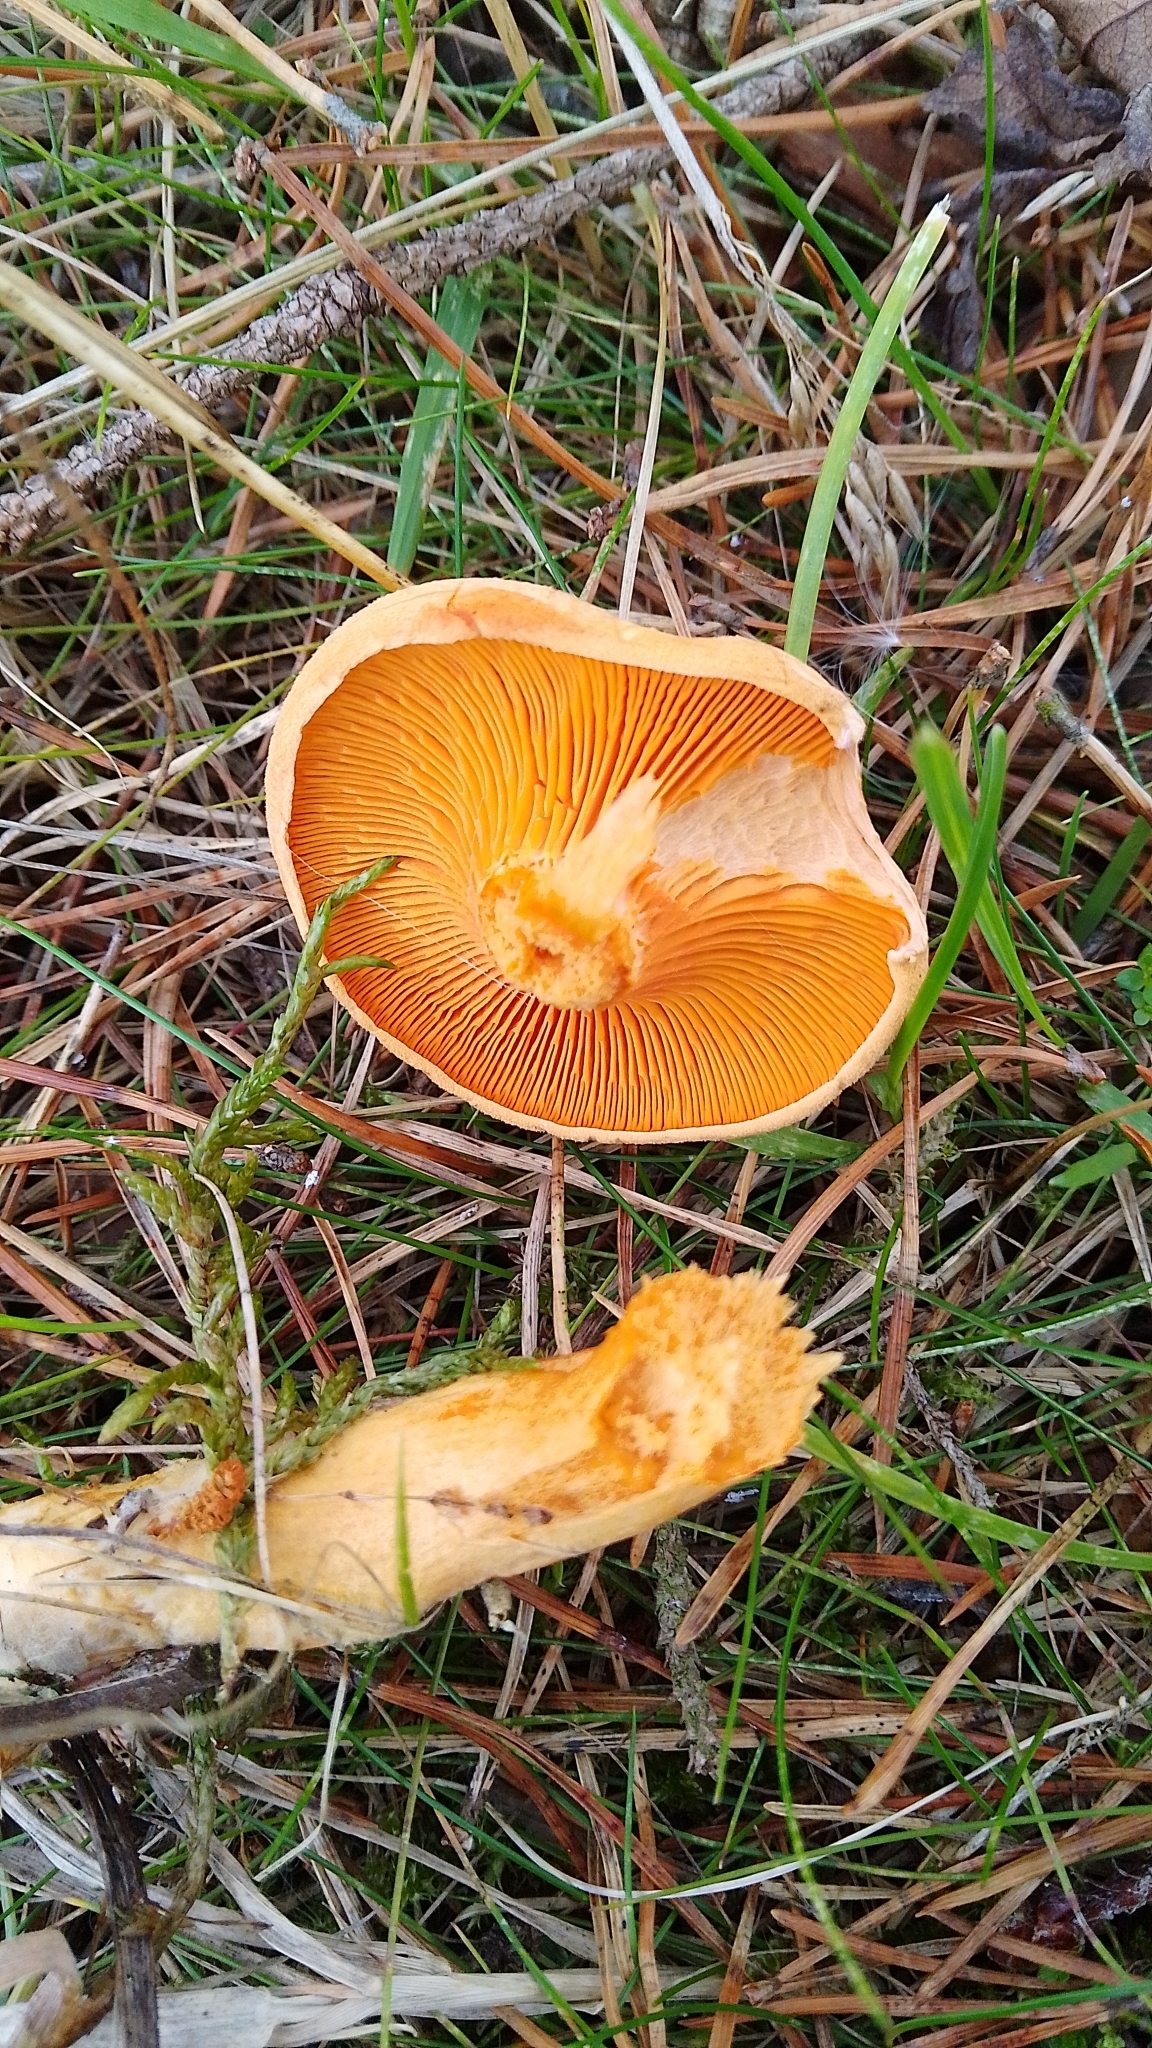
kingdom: Fungi
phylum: Basidiomycota
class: Agaricomycetes
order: Boletales
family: Hygrophoropsidaceae
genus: Hygrophoropsis
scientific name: Hygrophoropsis aurantiaca
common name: False chanterelle
